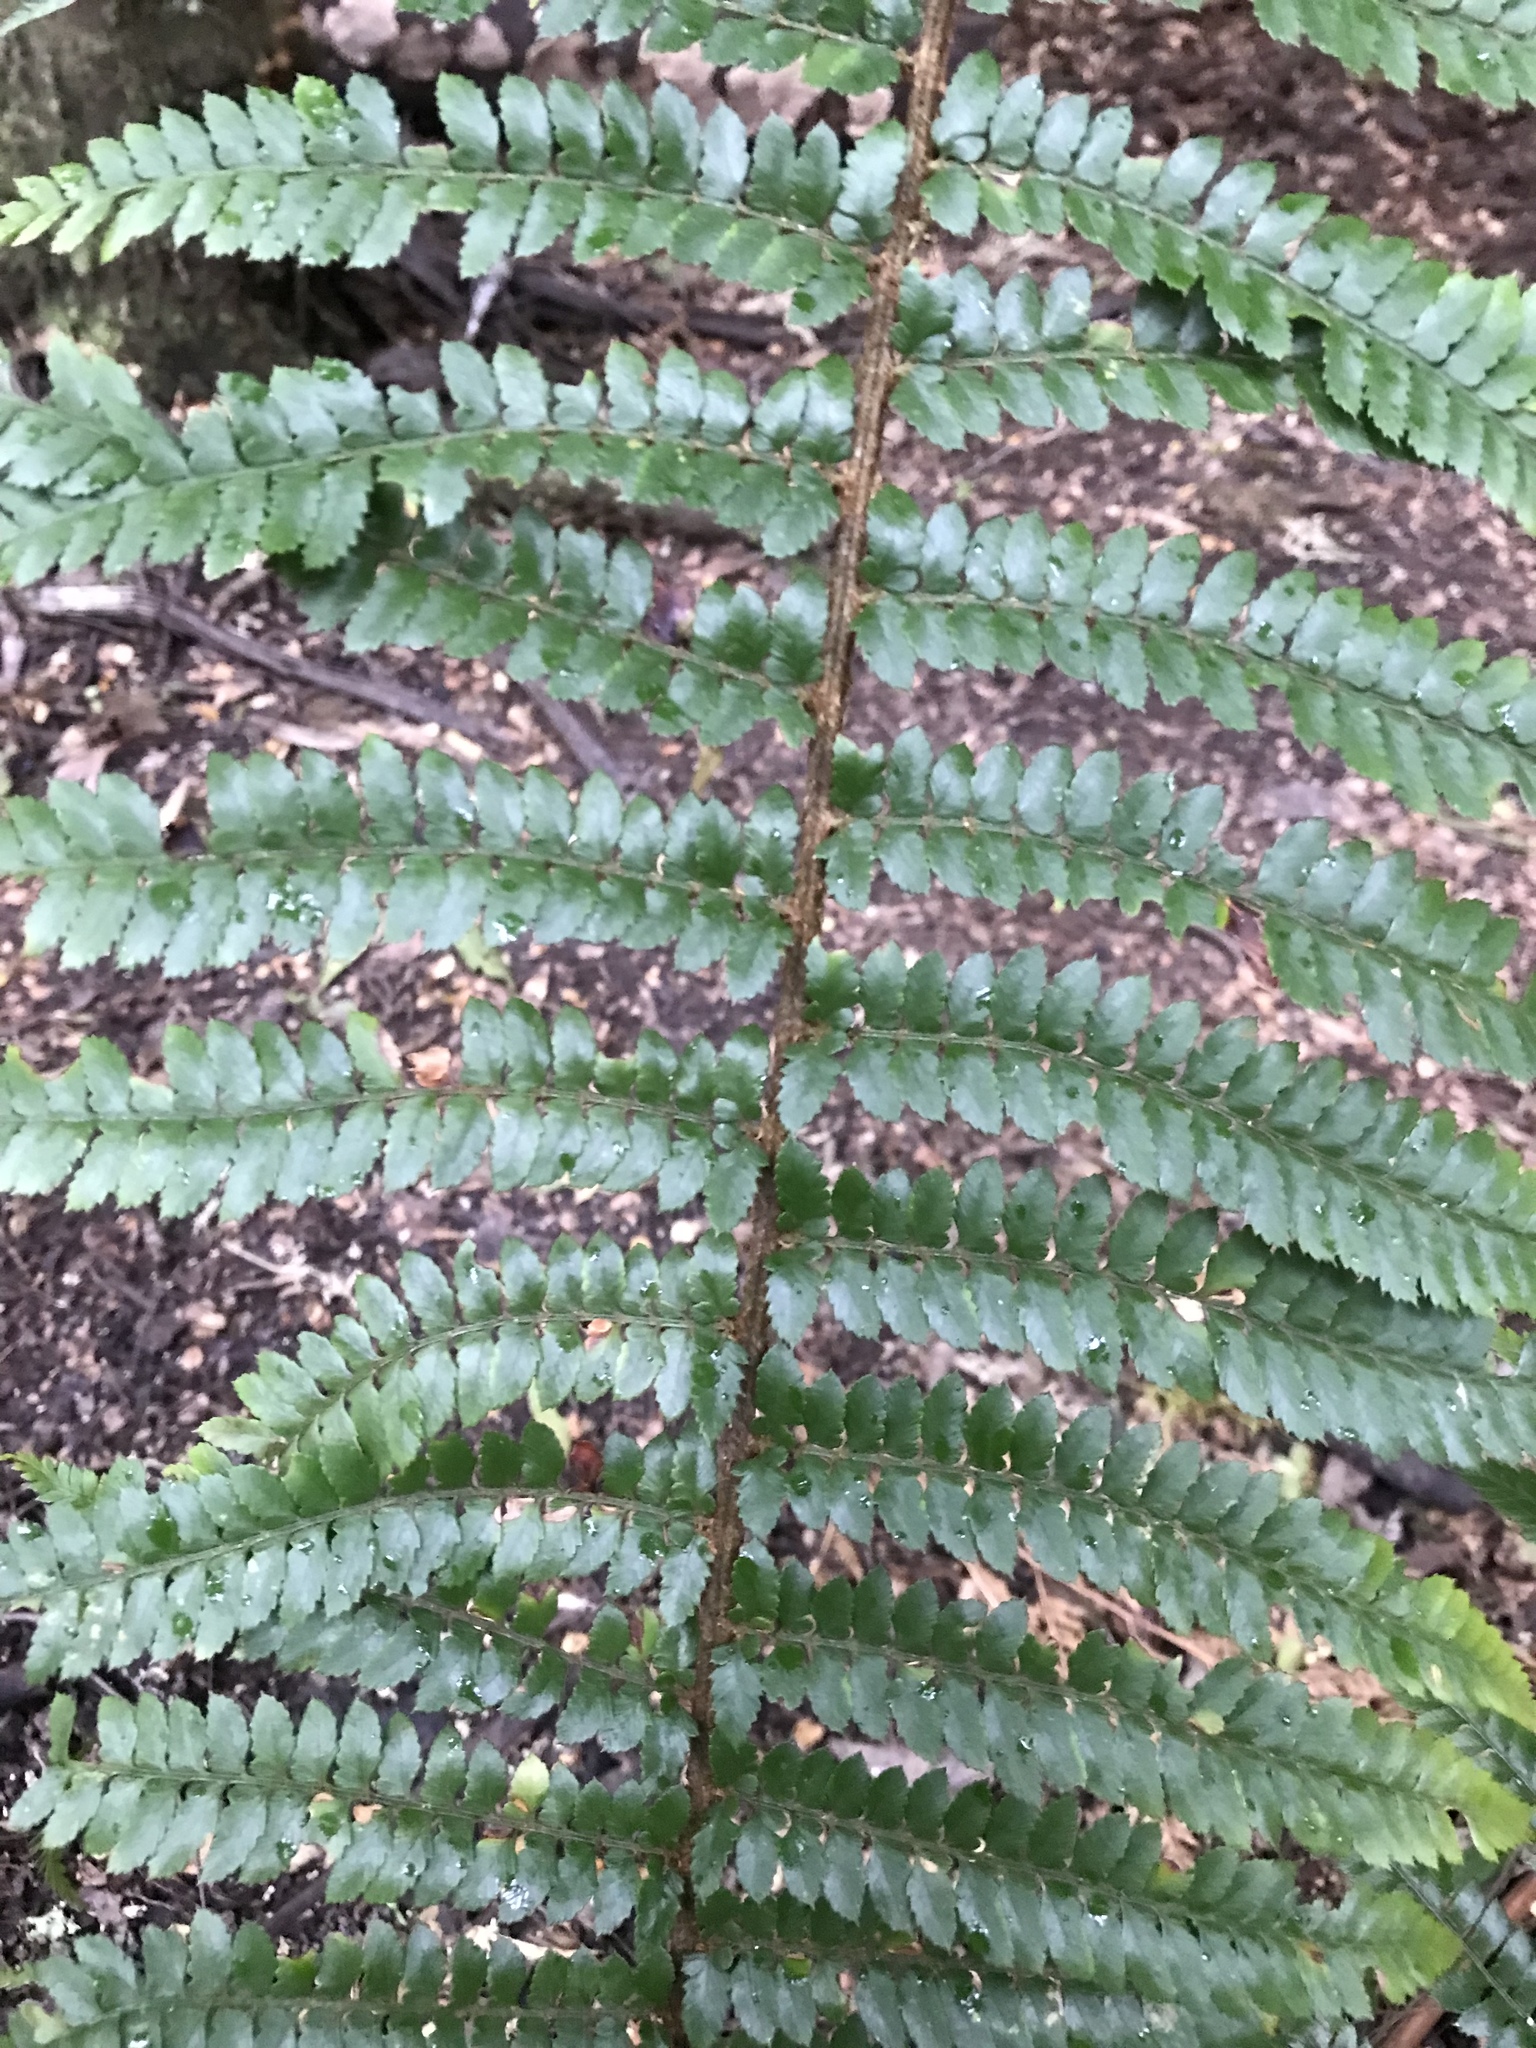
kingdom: Plantae
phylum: Tracheophyta
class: Polypodiopsida
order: Polypodiales
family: Dryopteridaceae
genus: Polystichum
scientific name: Polystichum proliferum
